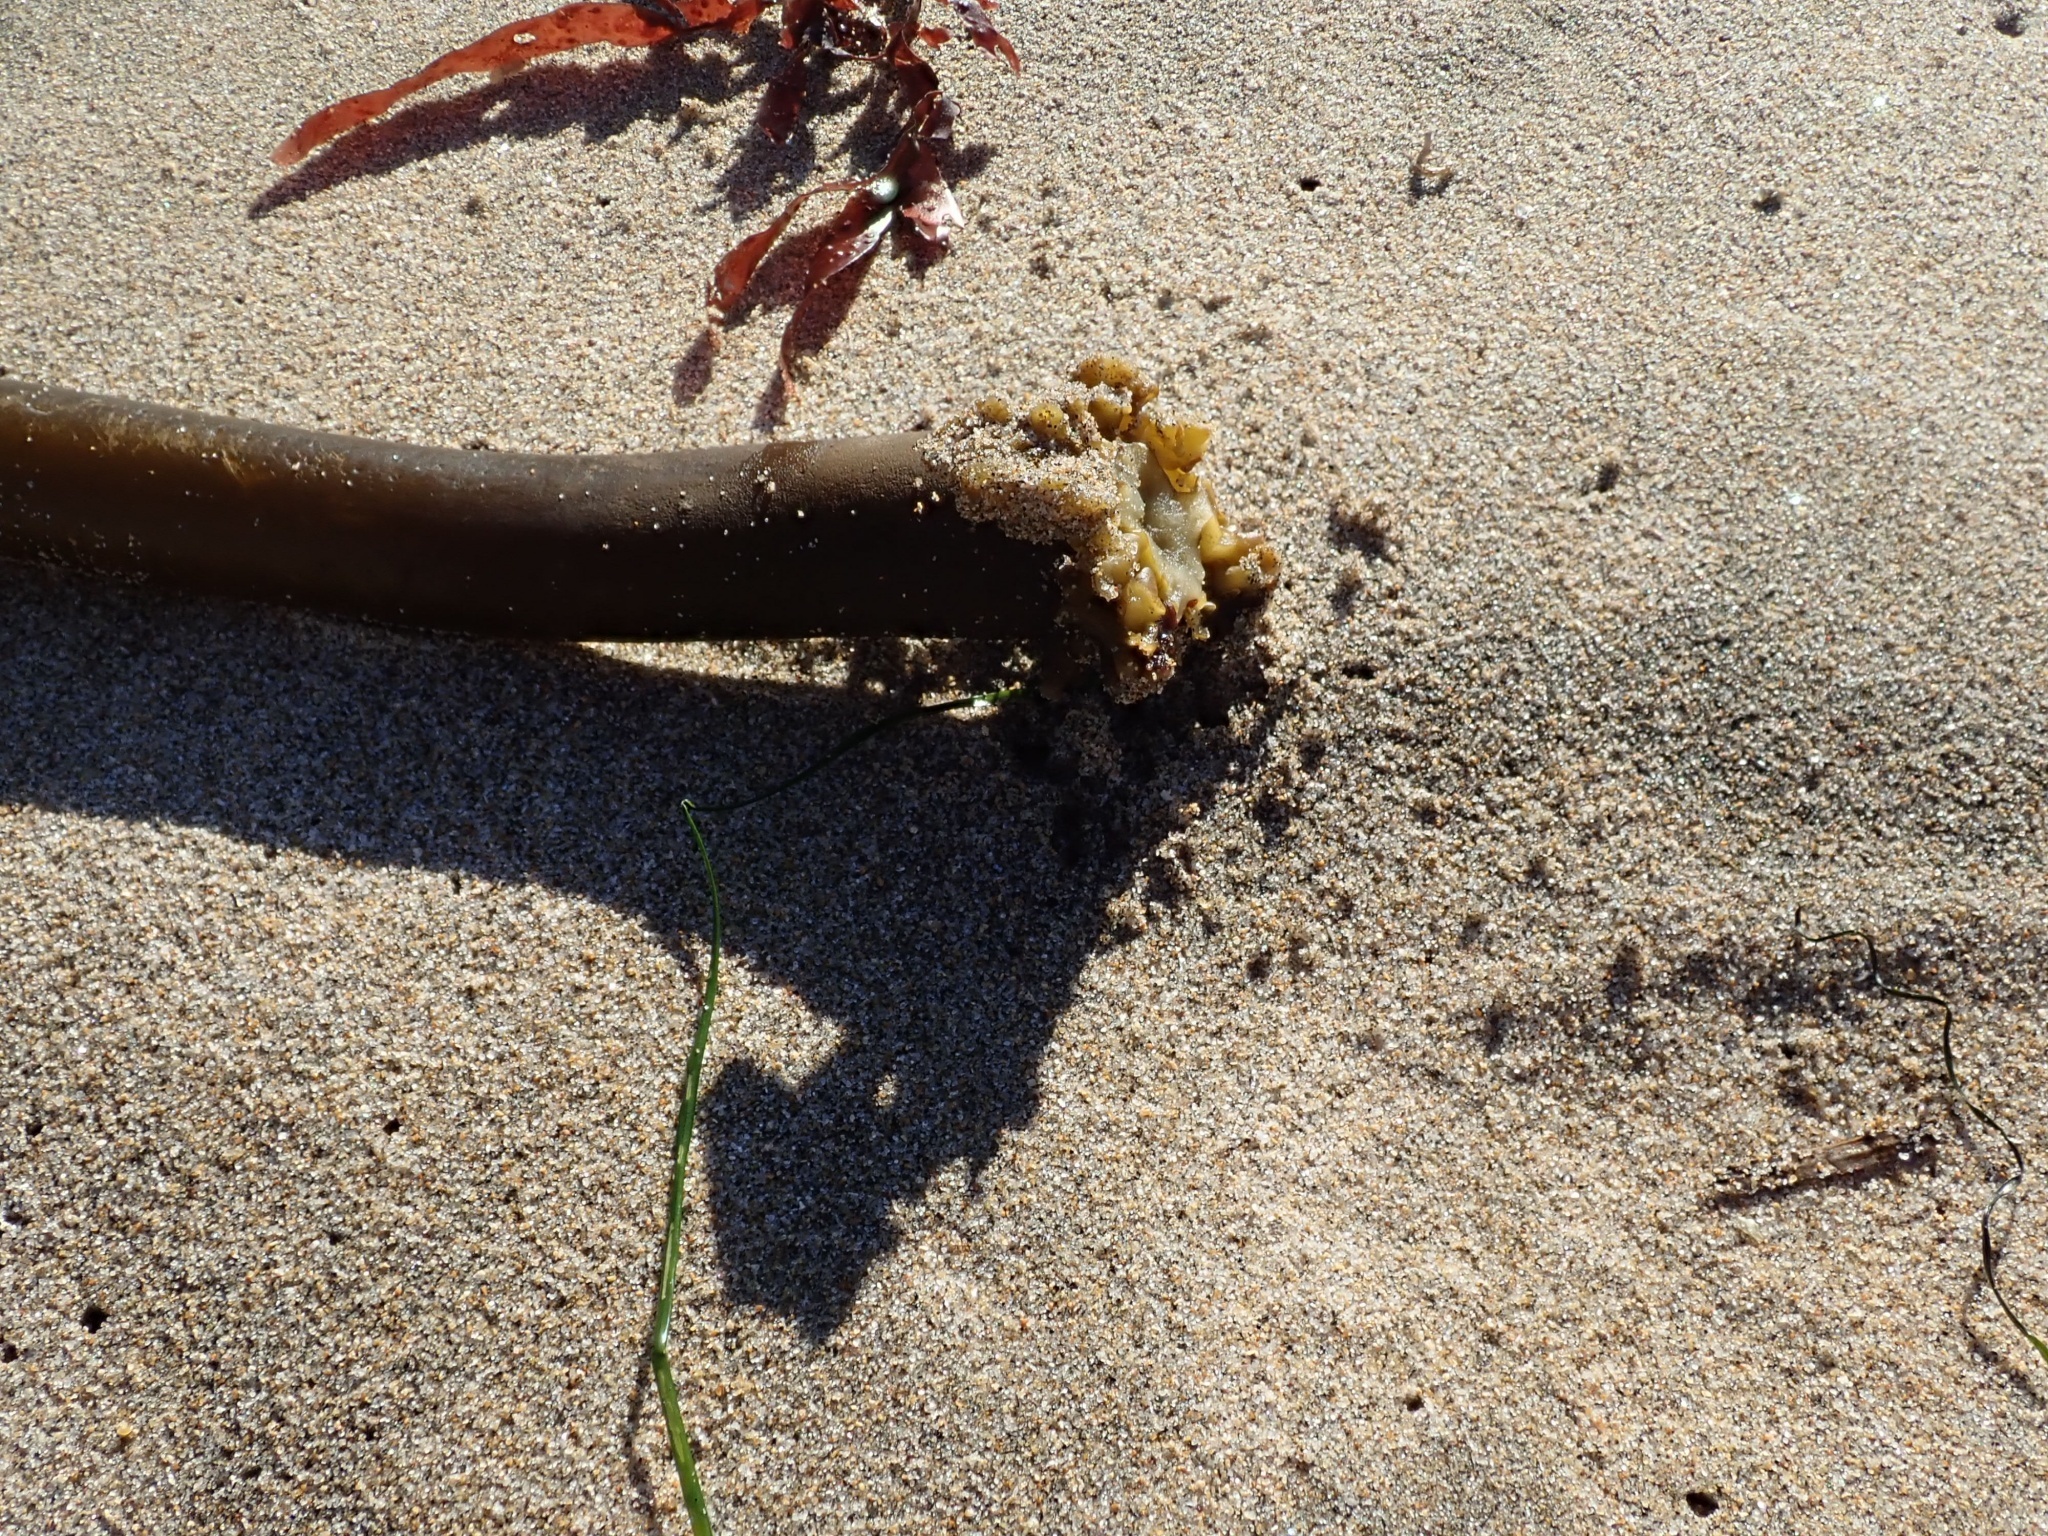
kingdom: Chromista
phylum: Ochrophyta
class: Phaeophyceae
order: Laminariales
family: Laminariaceae
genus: Postelsia
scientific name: Postelsia palmiformis
